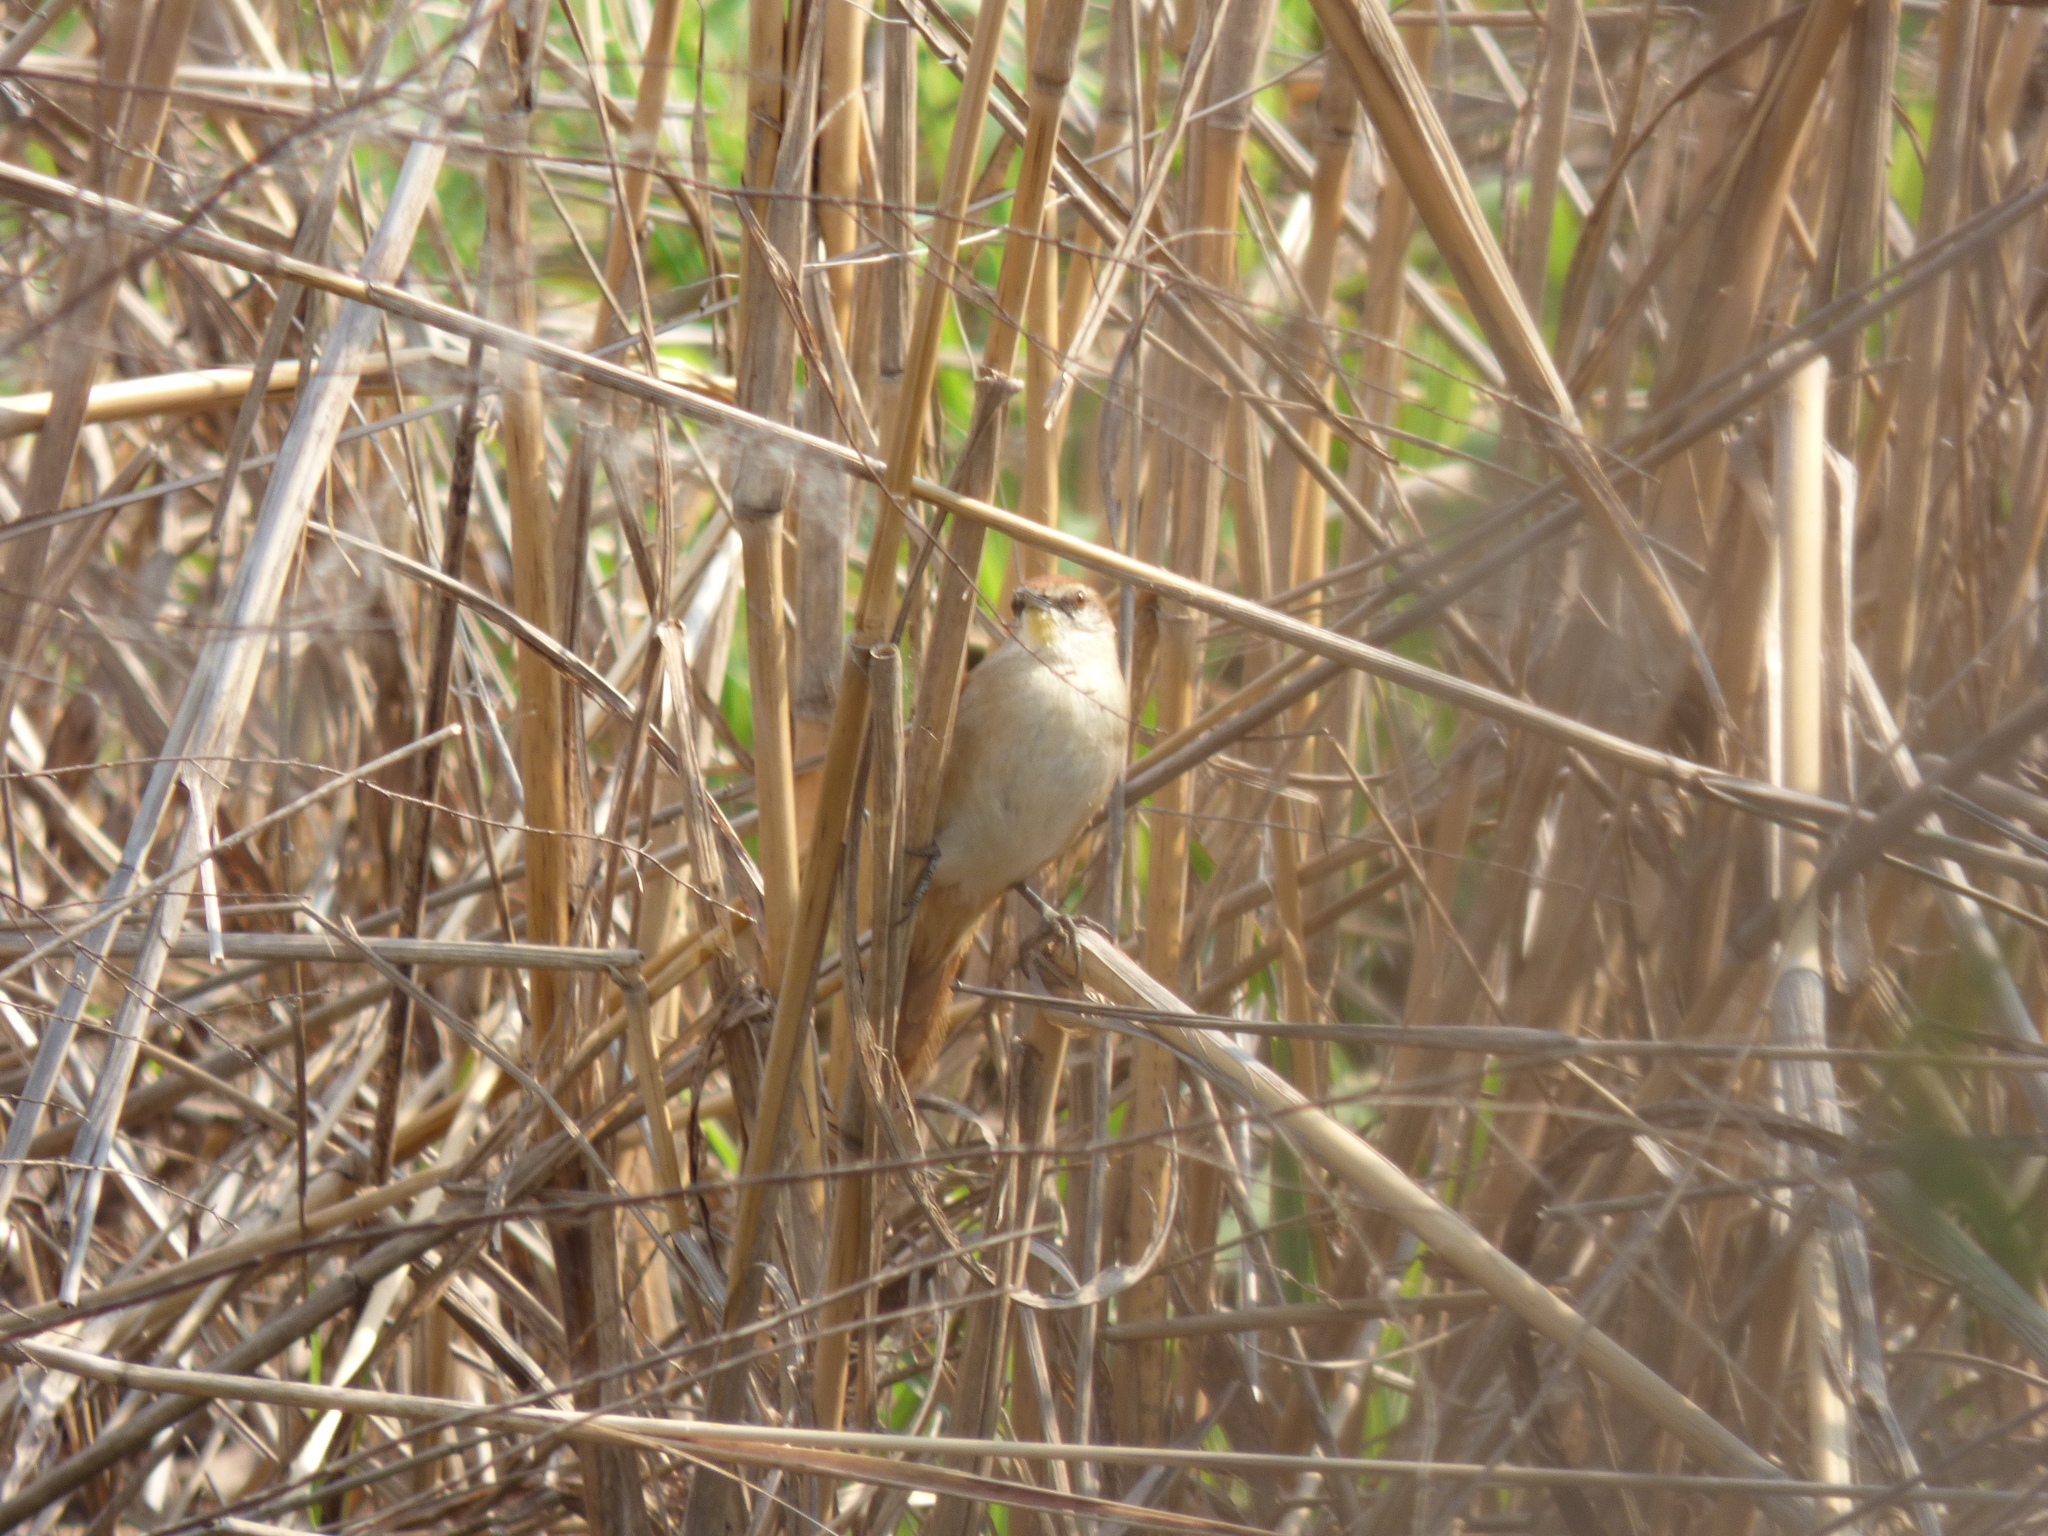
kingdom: Animalia
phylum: Chordata
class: Aves
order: Passeriformes
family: Furnariidae
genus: Certhiaxis
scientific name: Certhiaxis cinnamomeus
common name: Yellow-chinned spinetail
